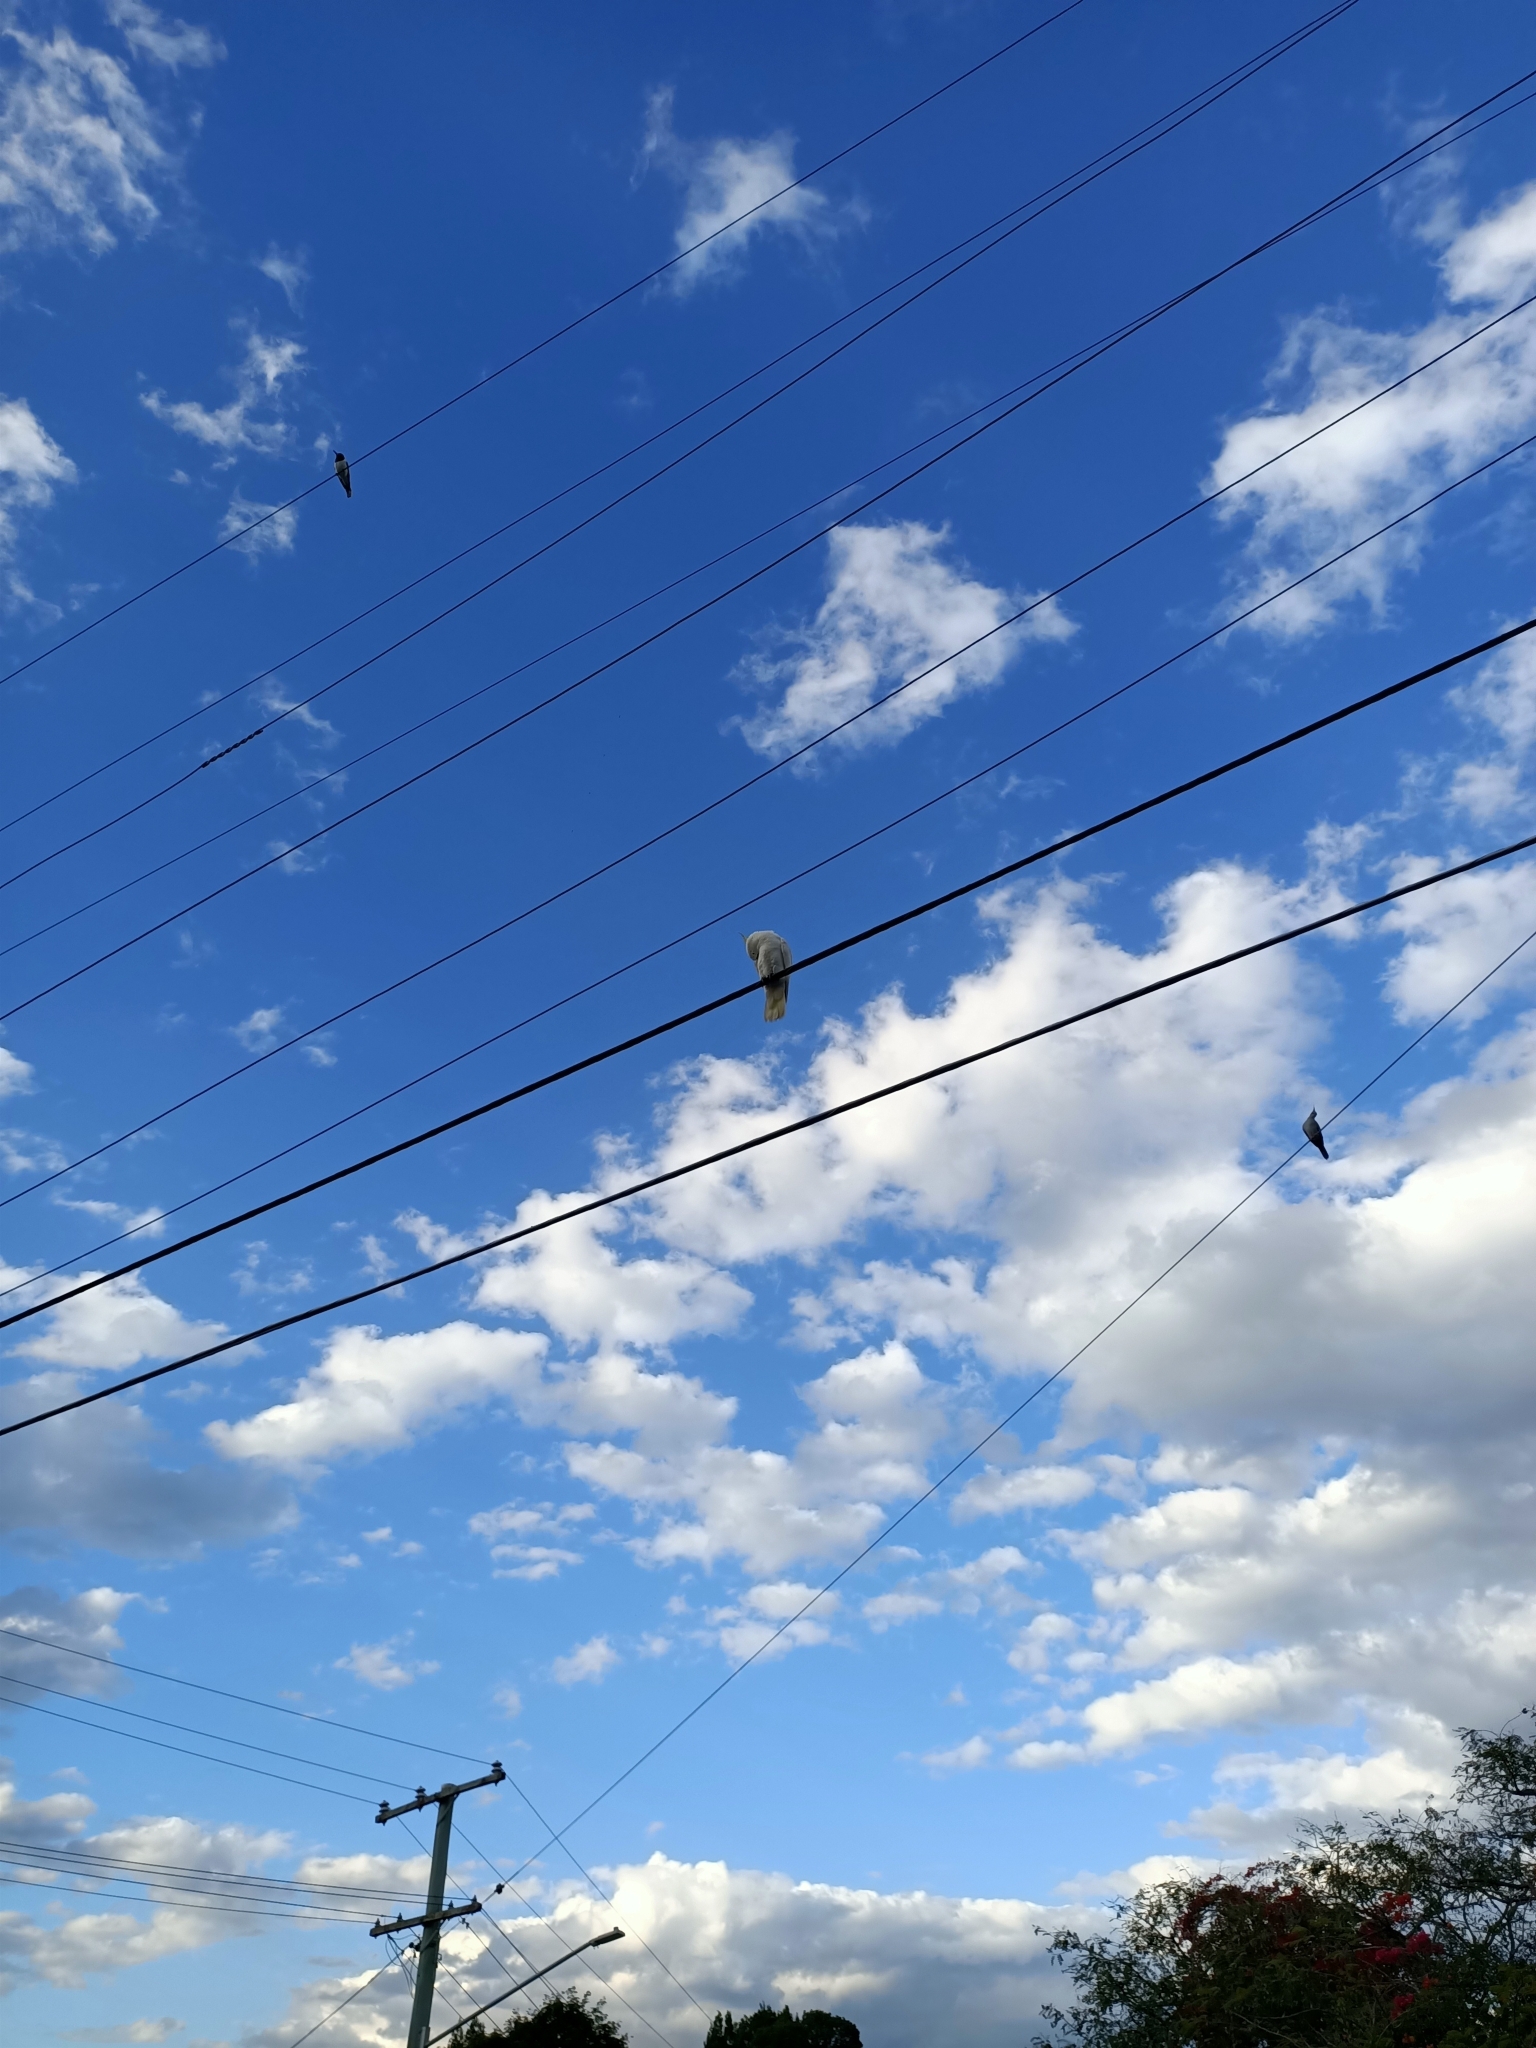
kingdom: Animalia
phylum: Chordata
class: Aves
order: Psittaciformes
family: Psittacidae
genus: Cacatua
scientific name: Cacatua galerita
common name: Sulphur-crested cockatoo
